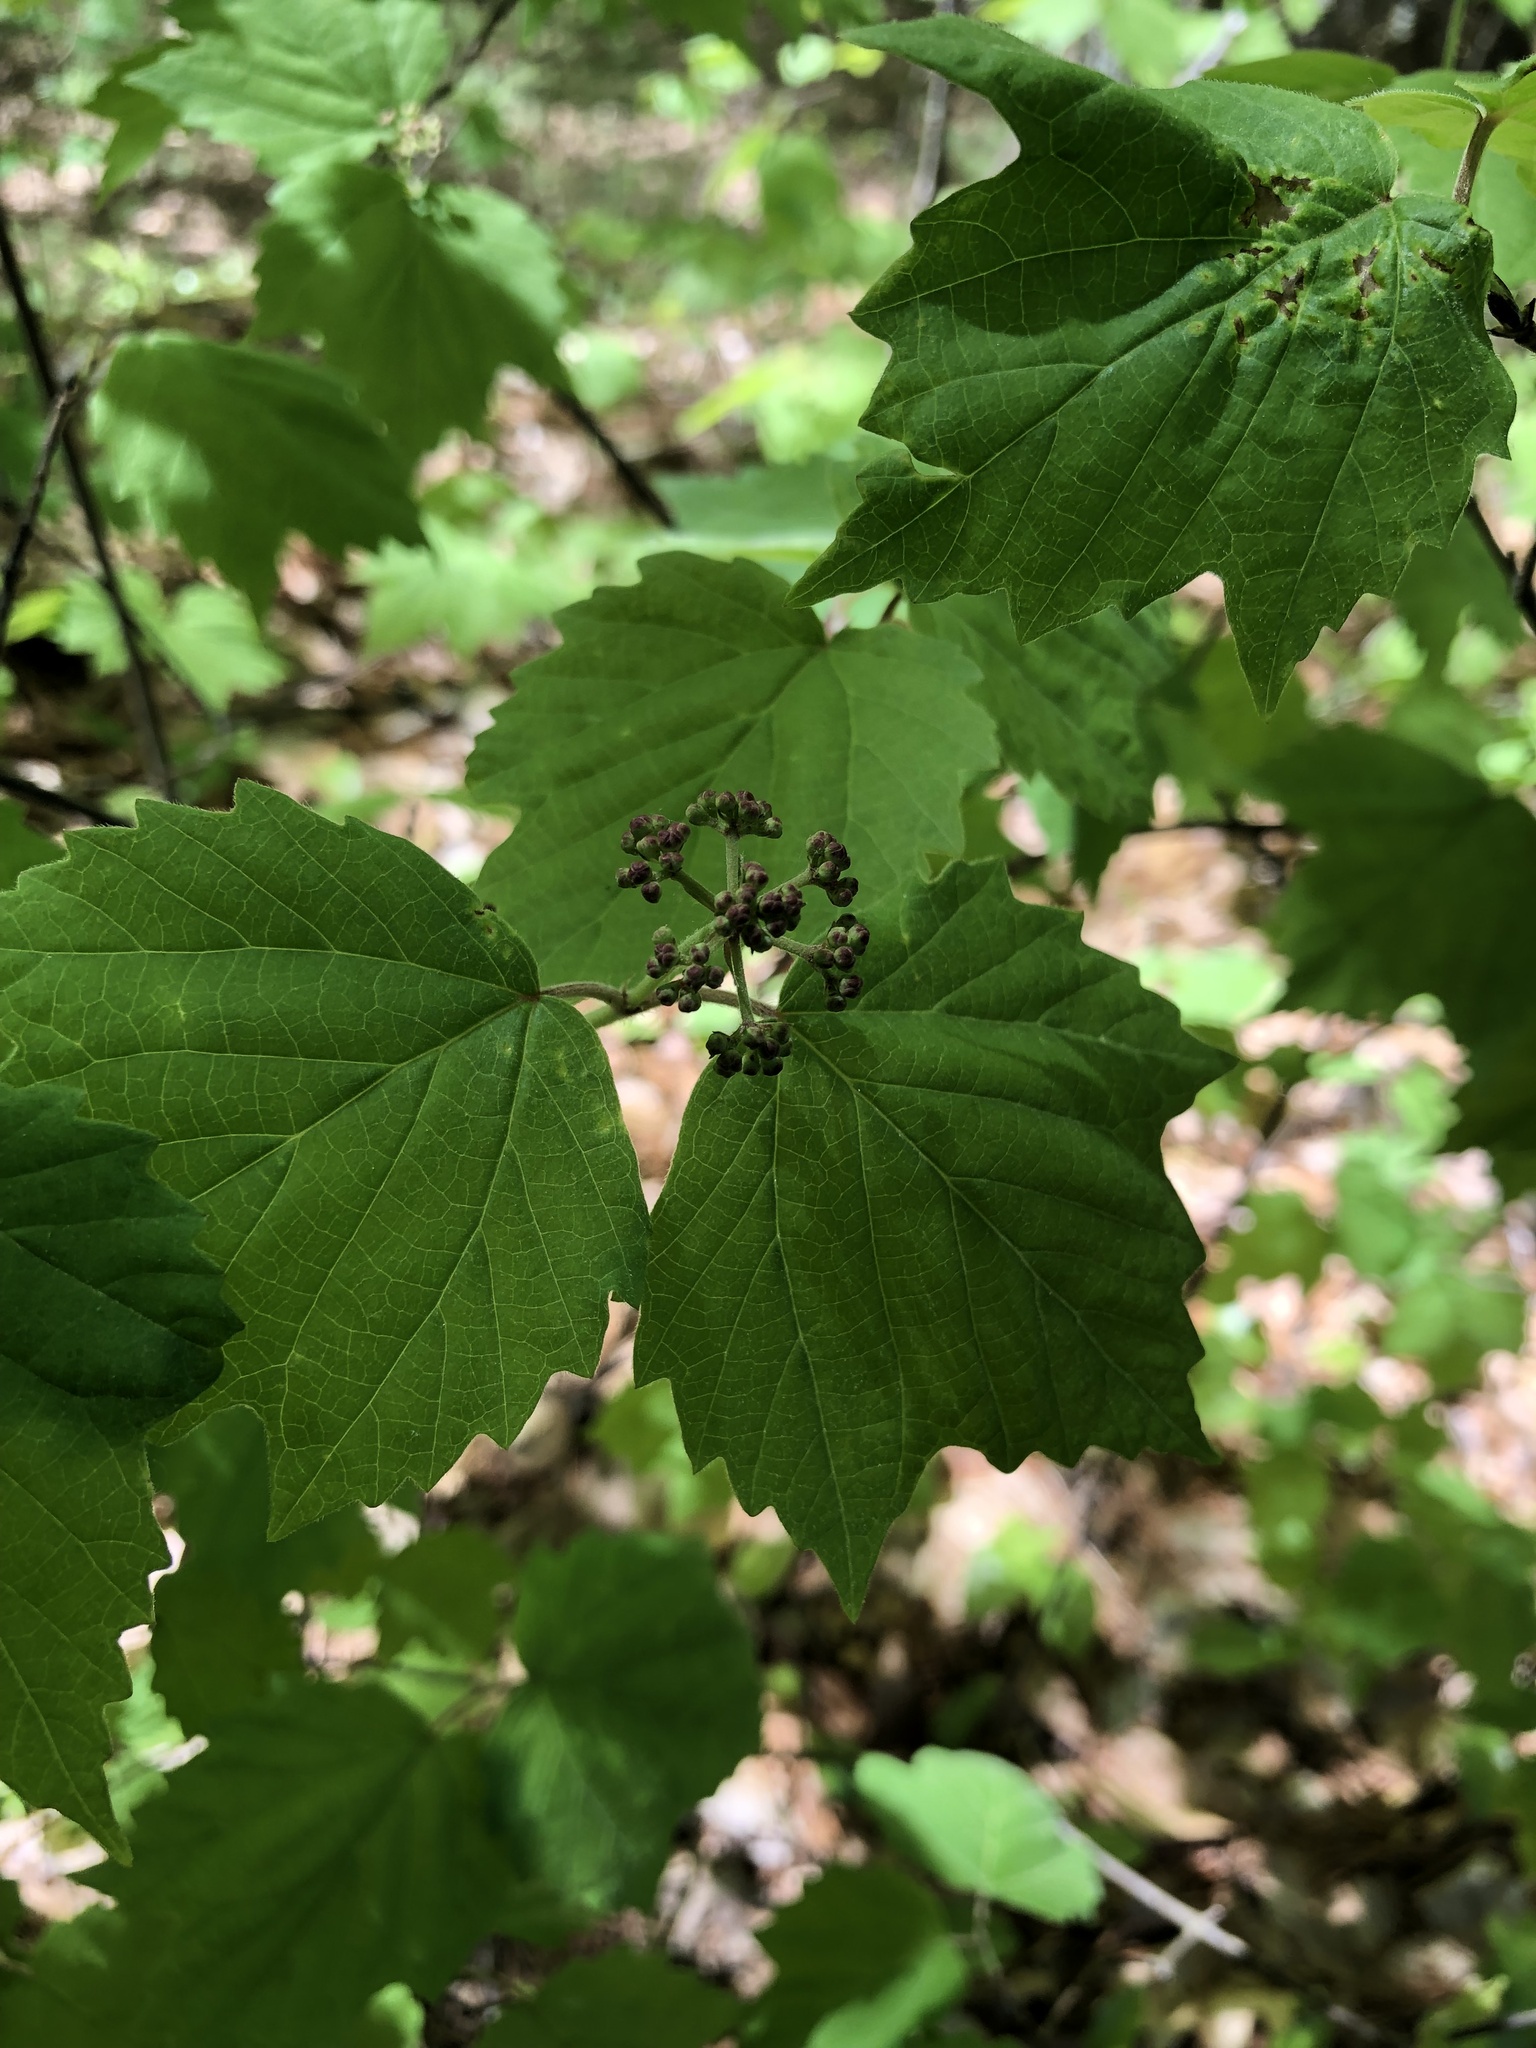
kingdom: Plantae
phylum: Tracheophyta
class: Magnoliopsida
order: Dipsacales
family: Viburnaceae
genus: Viburnum
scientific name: Viburnum acerifolium
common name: Dockmackie
